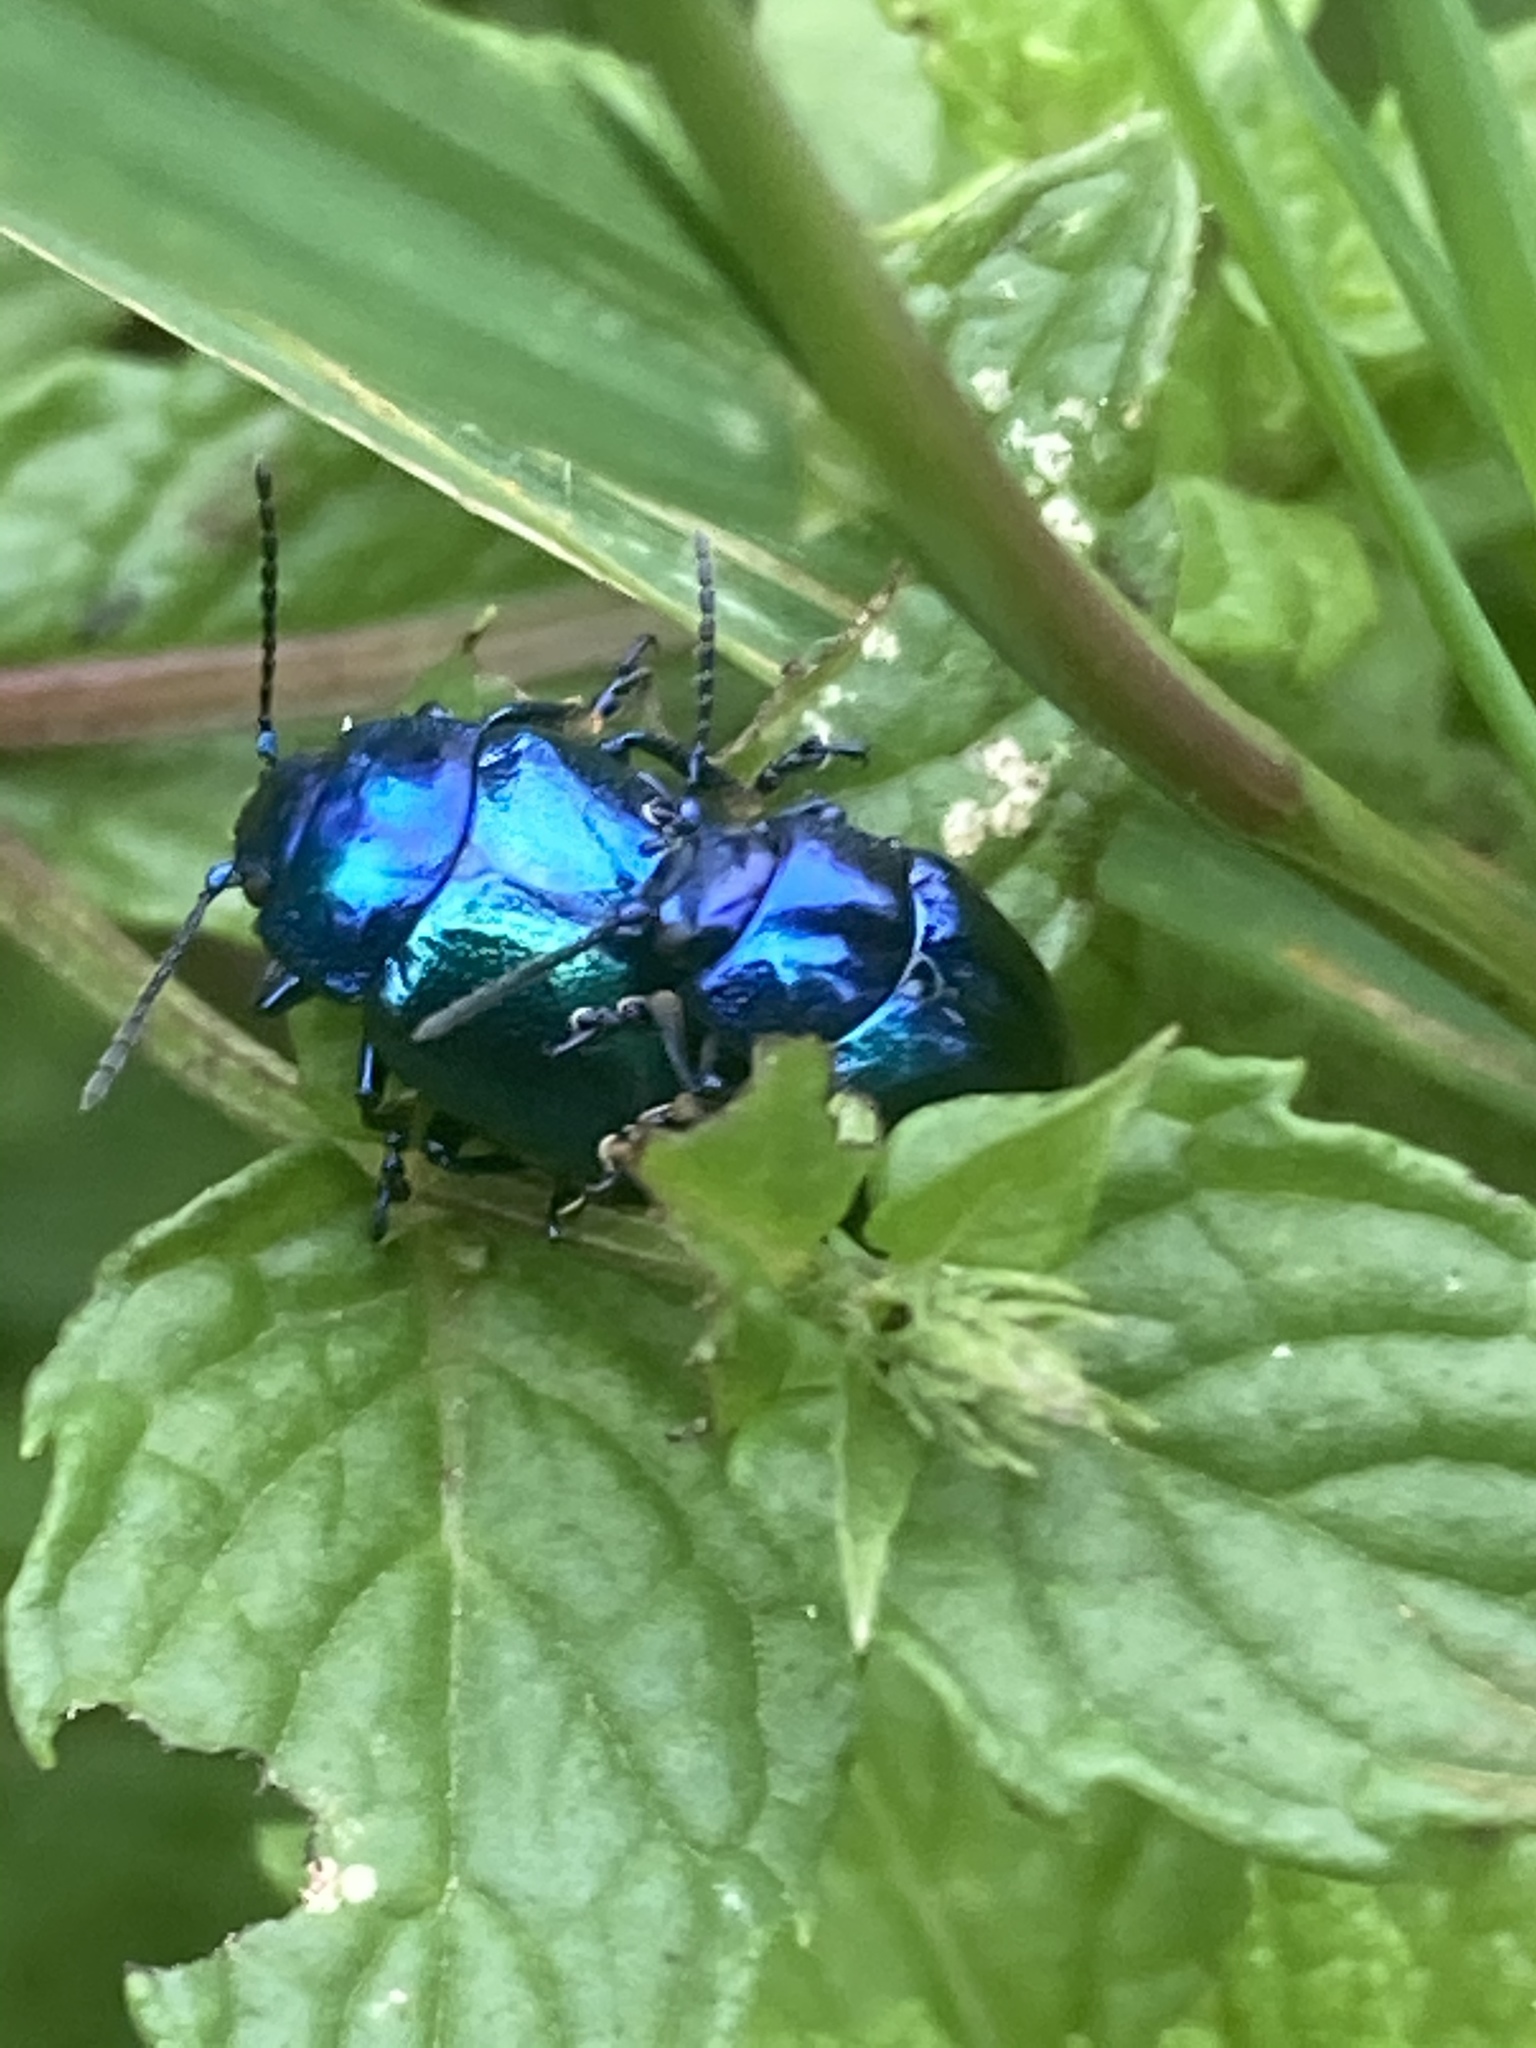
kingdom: Animalia
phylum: Arthropoda
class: Insecta
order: Coleoptera
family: Chrysomelidae
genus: Chrysolina
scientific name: Chrysolina coerulans
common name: Blue mint beetle
